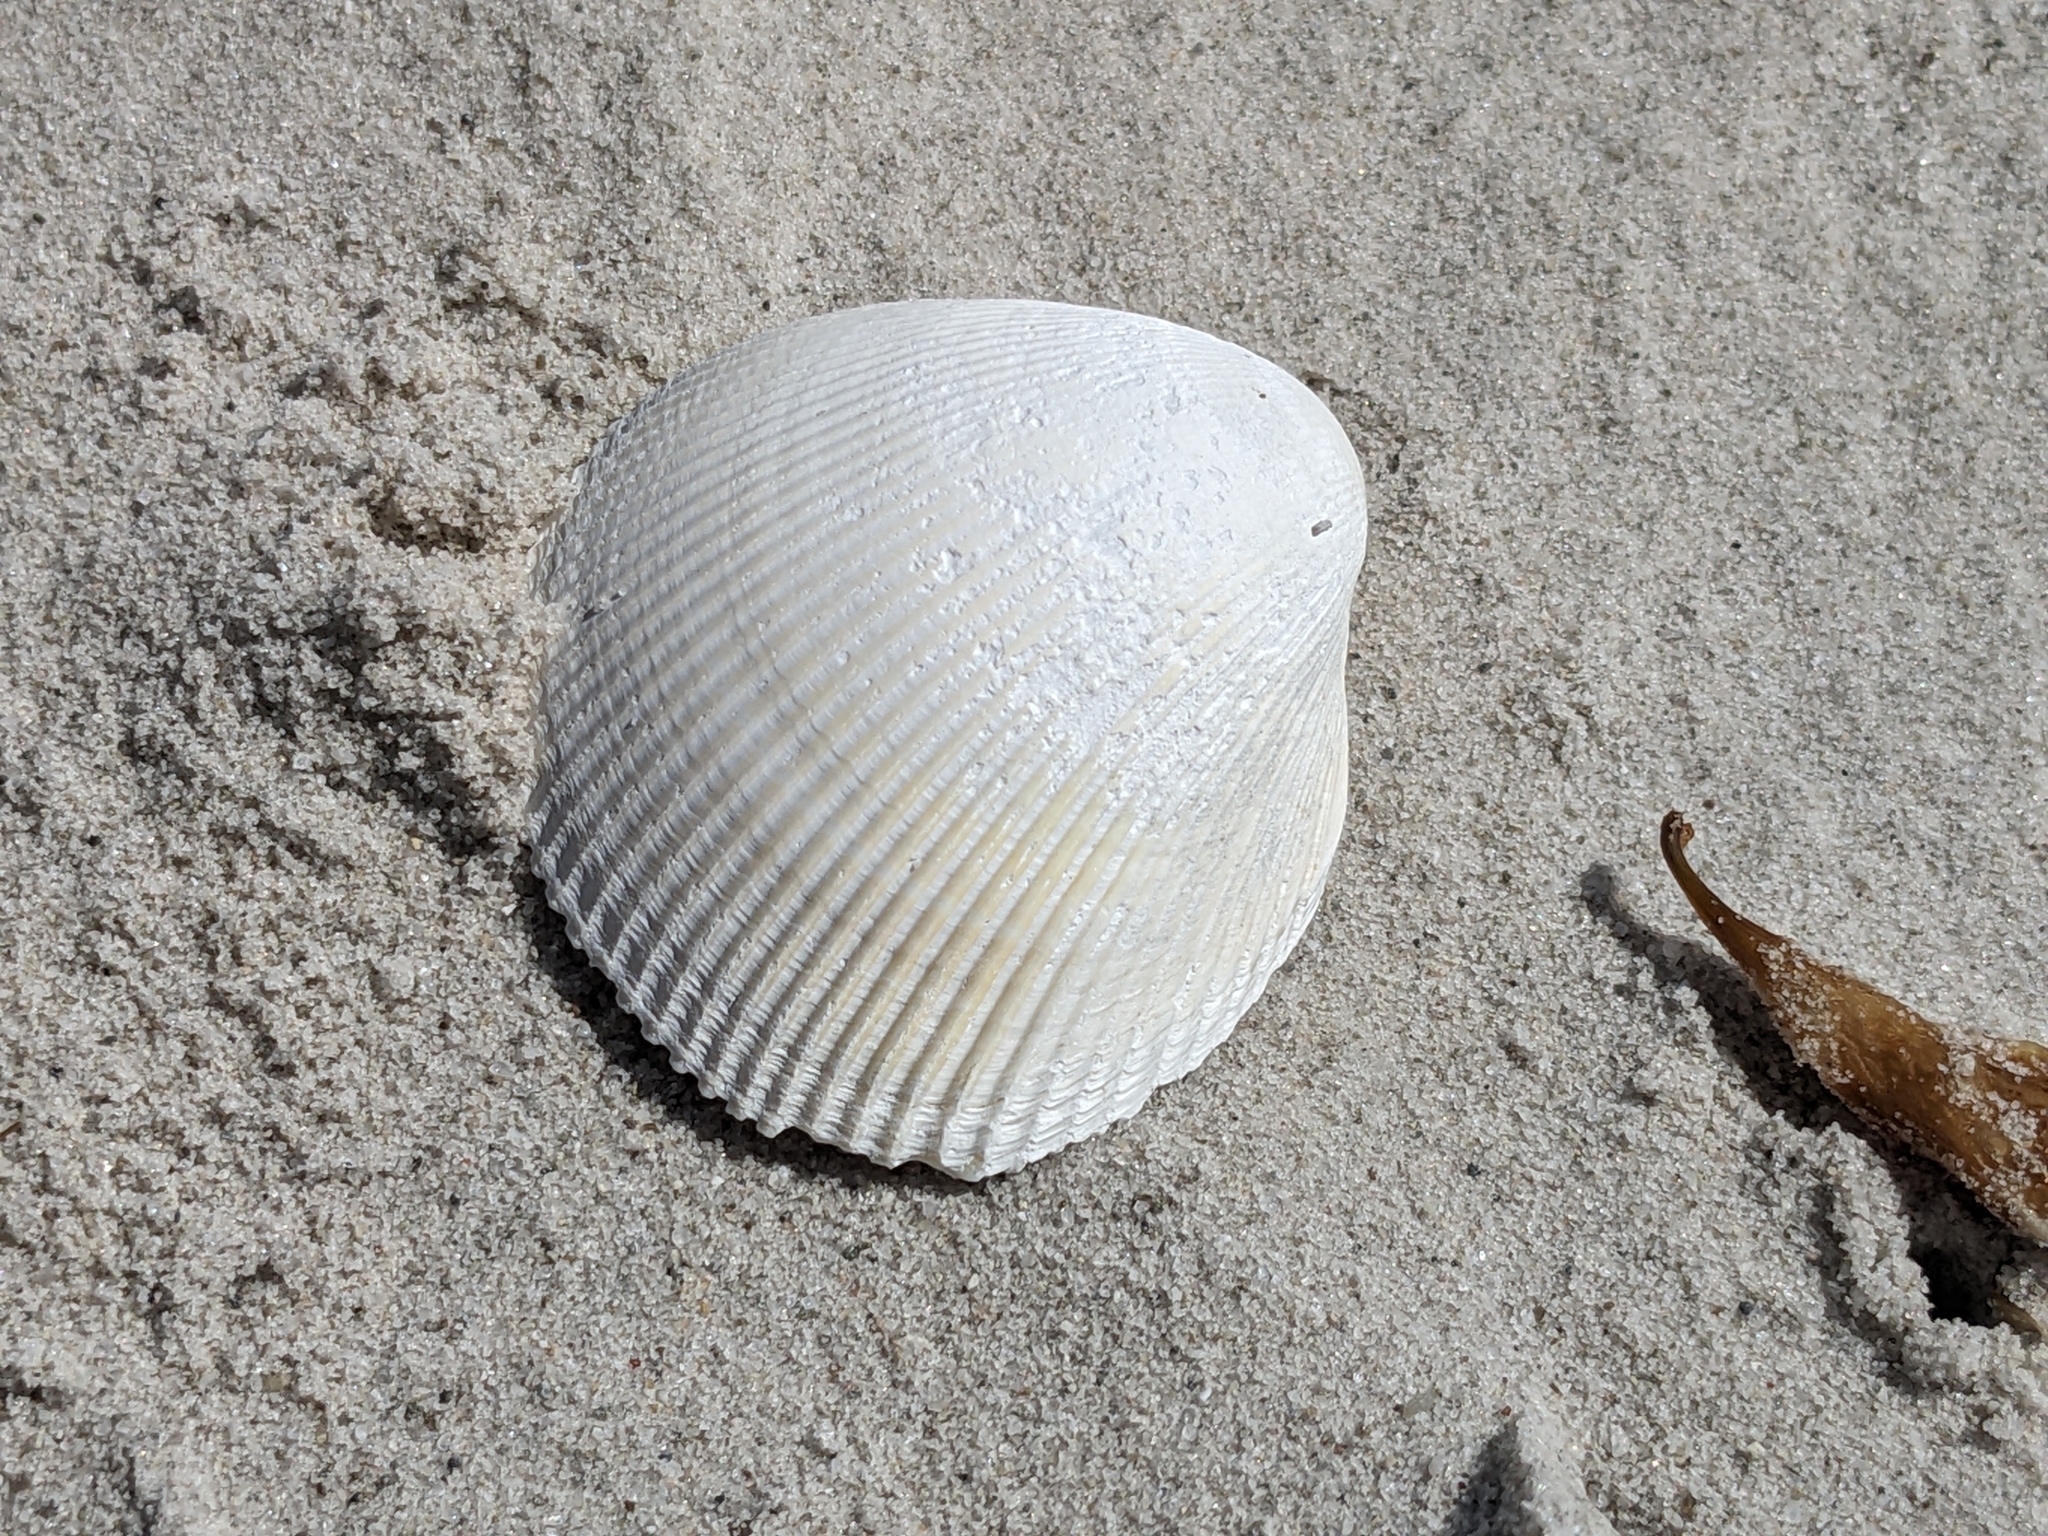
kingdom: Animalia
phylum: Mollusca
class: Bivalvia
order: Cardiida
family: Cardiidae
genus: Fulvia
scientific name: Fulvia tenuicostata
